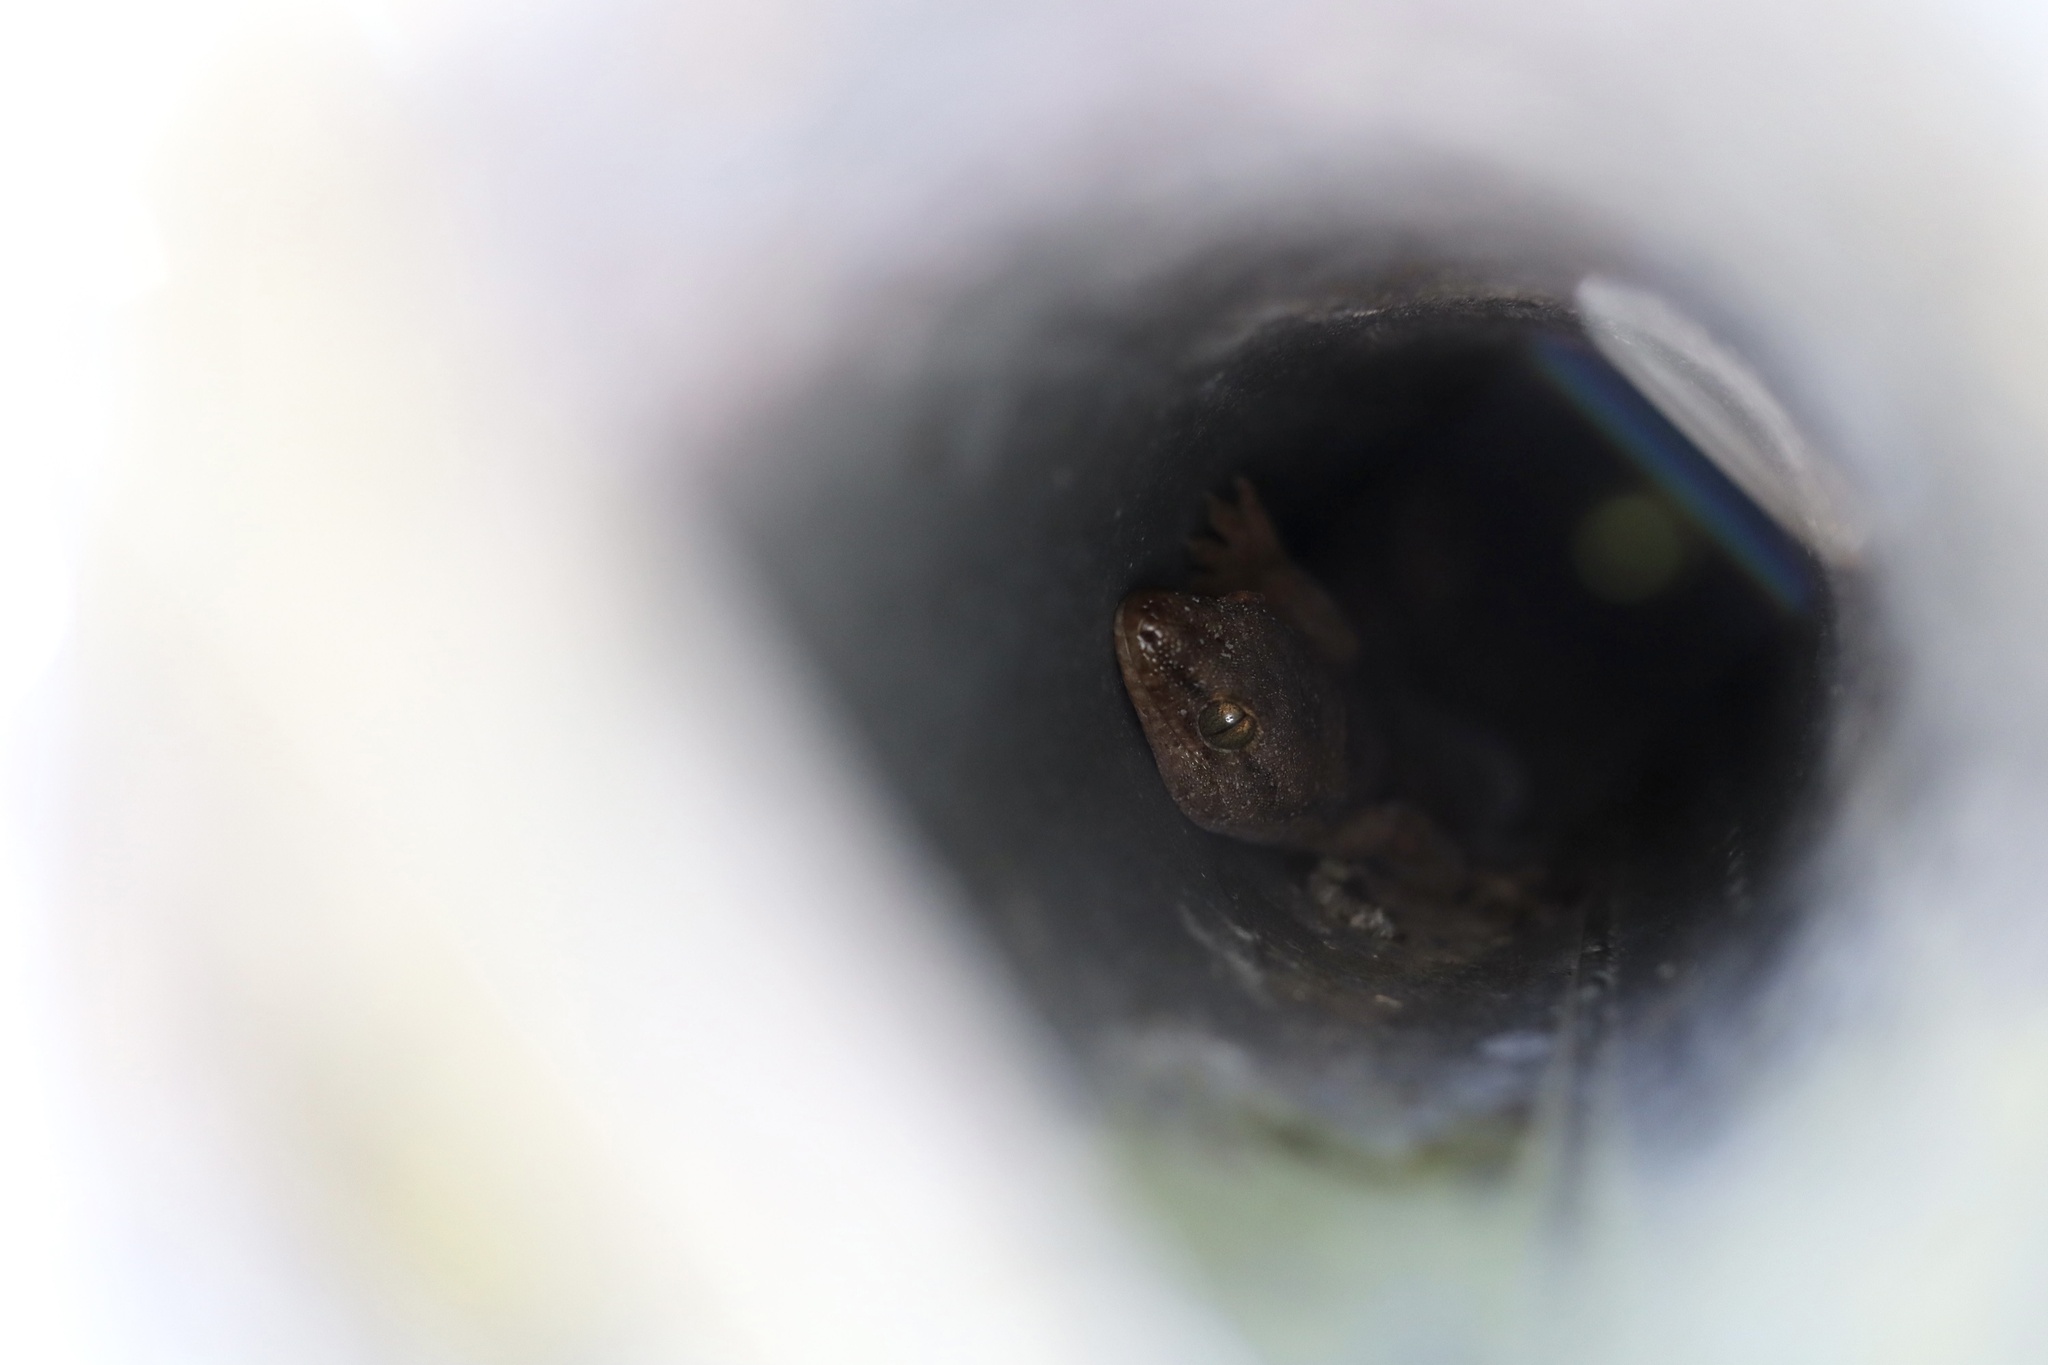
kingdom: Animalia
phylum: Chordata
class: Squamata
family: Diplodactylidae
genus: Woodworthia
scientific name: Woodworthia maculata
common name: Raukawa gecko
